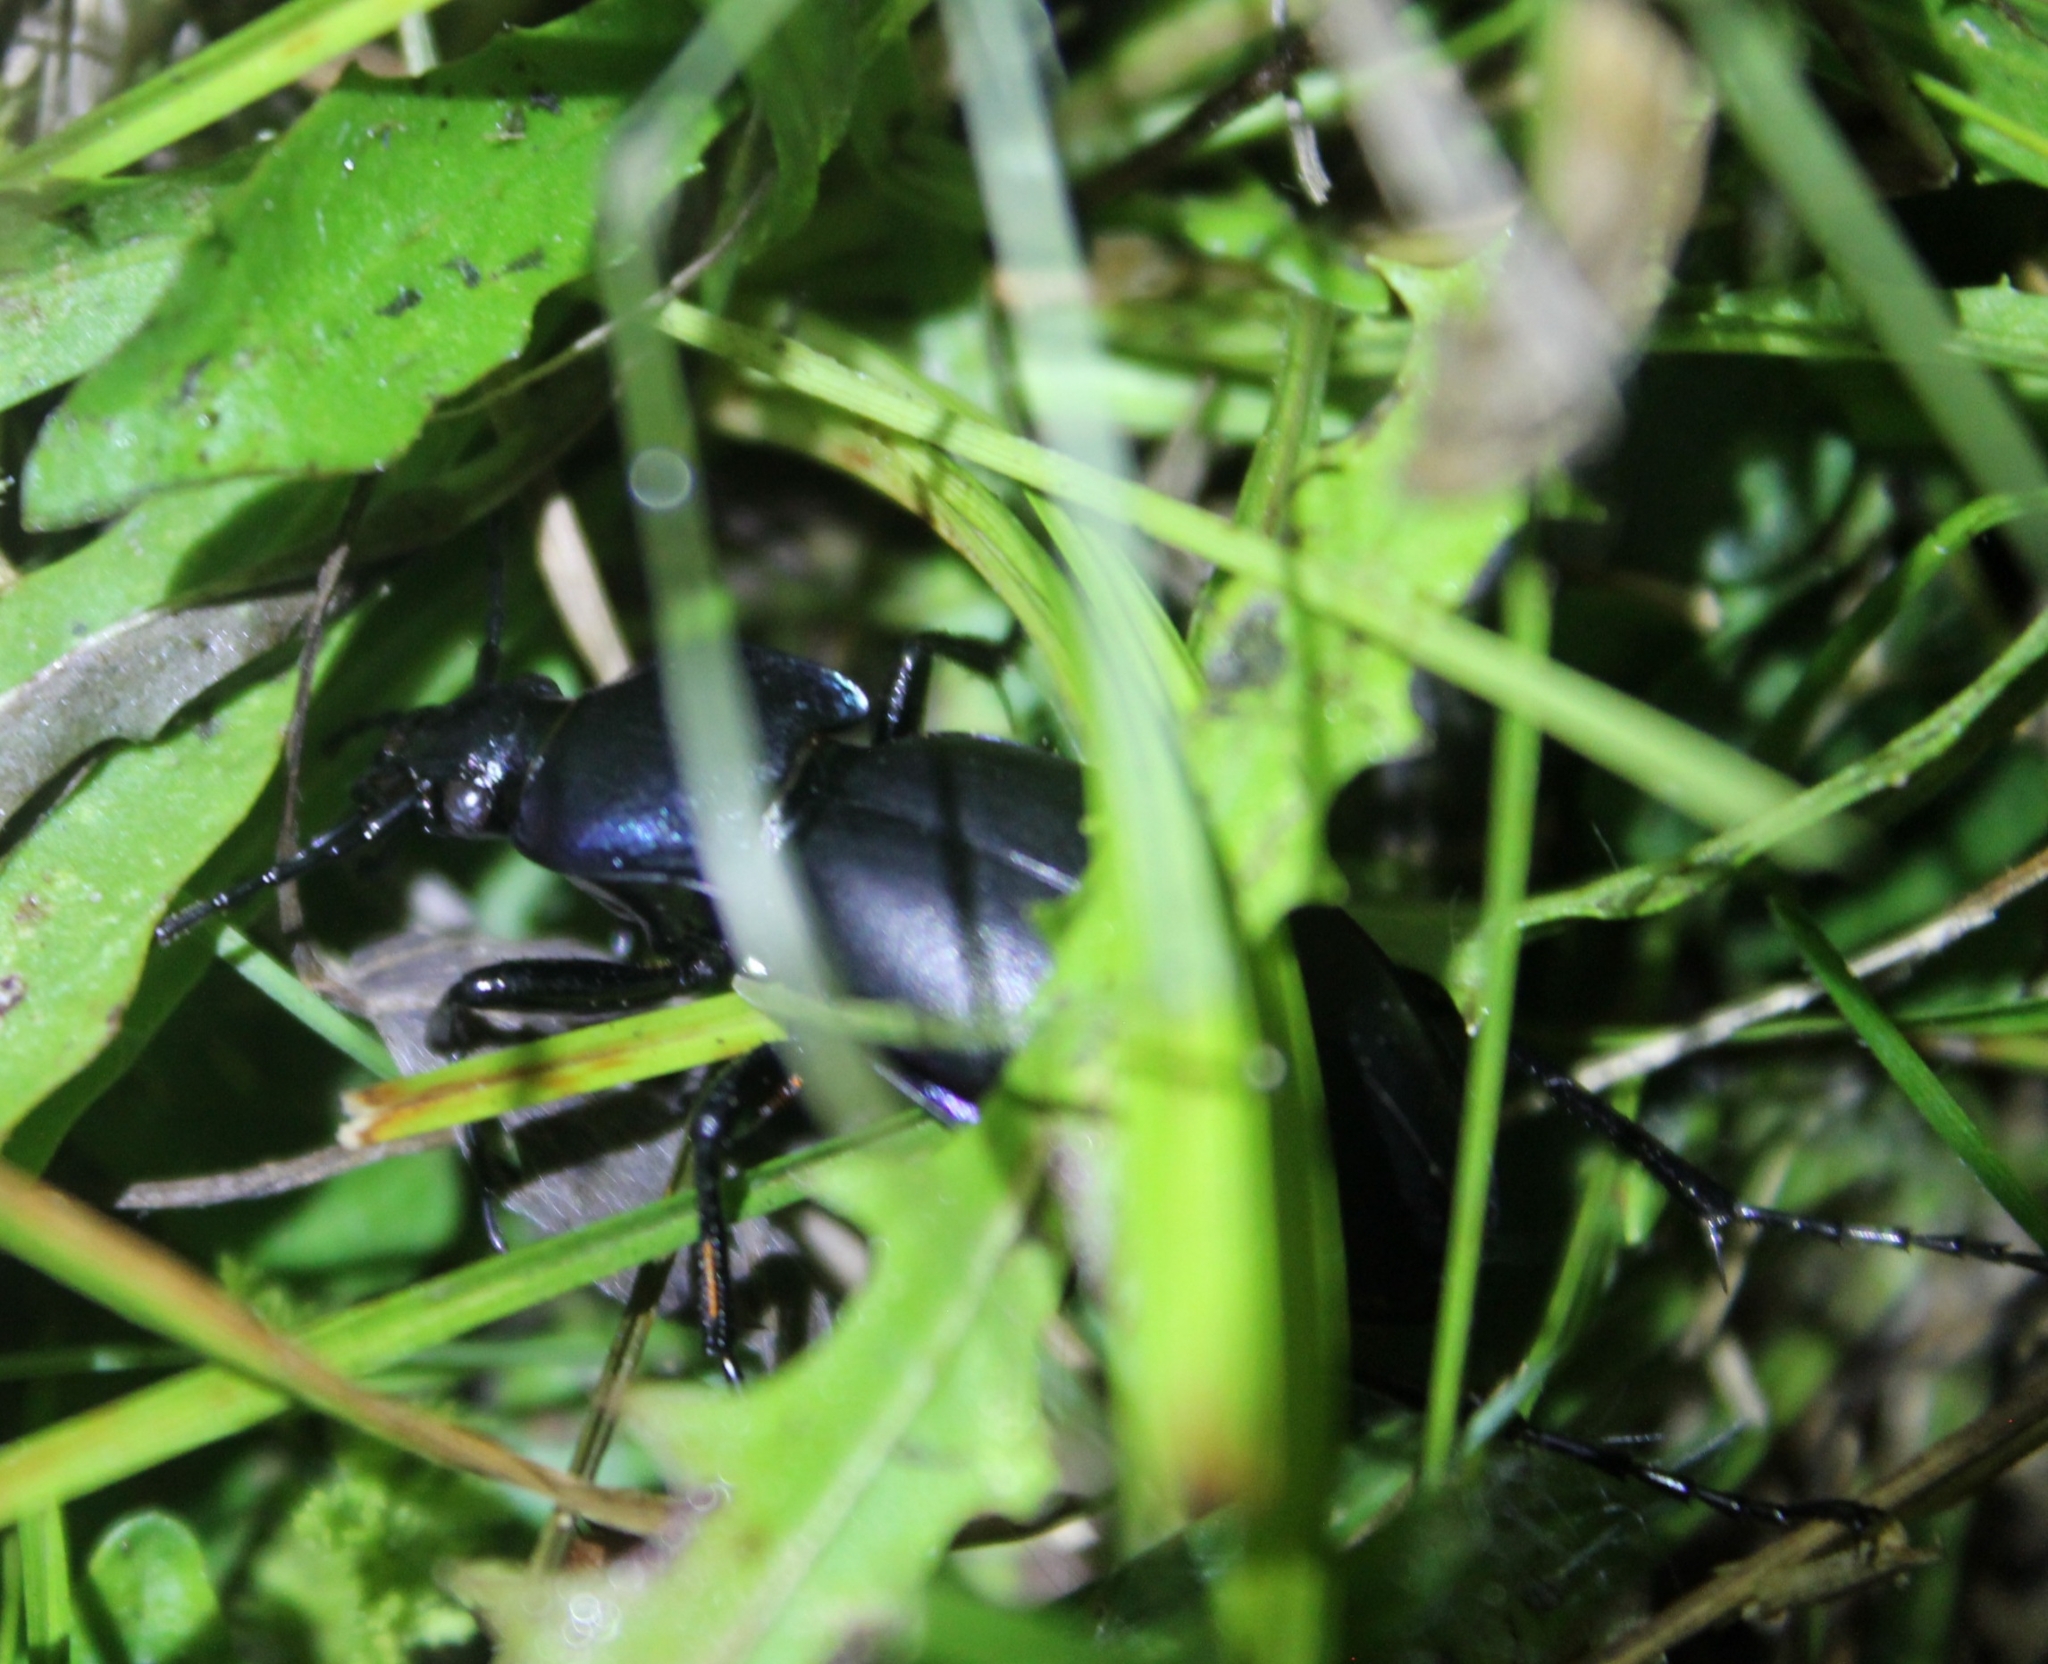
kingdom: Animalia
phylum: Arthropoda
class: Insecta
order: Coleoptera
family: Carabidae
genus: Carabus
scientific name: Carabus violaceus
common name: Violet ground beetle
